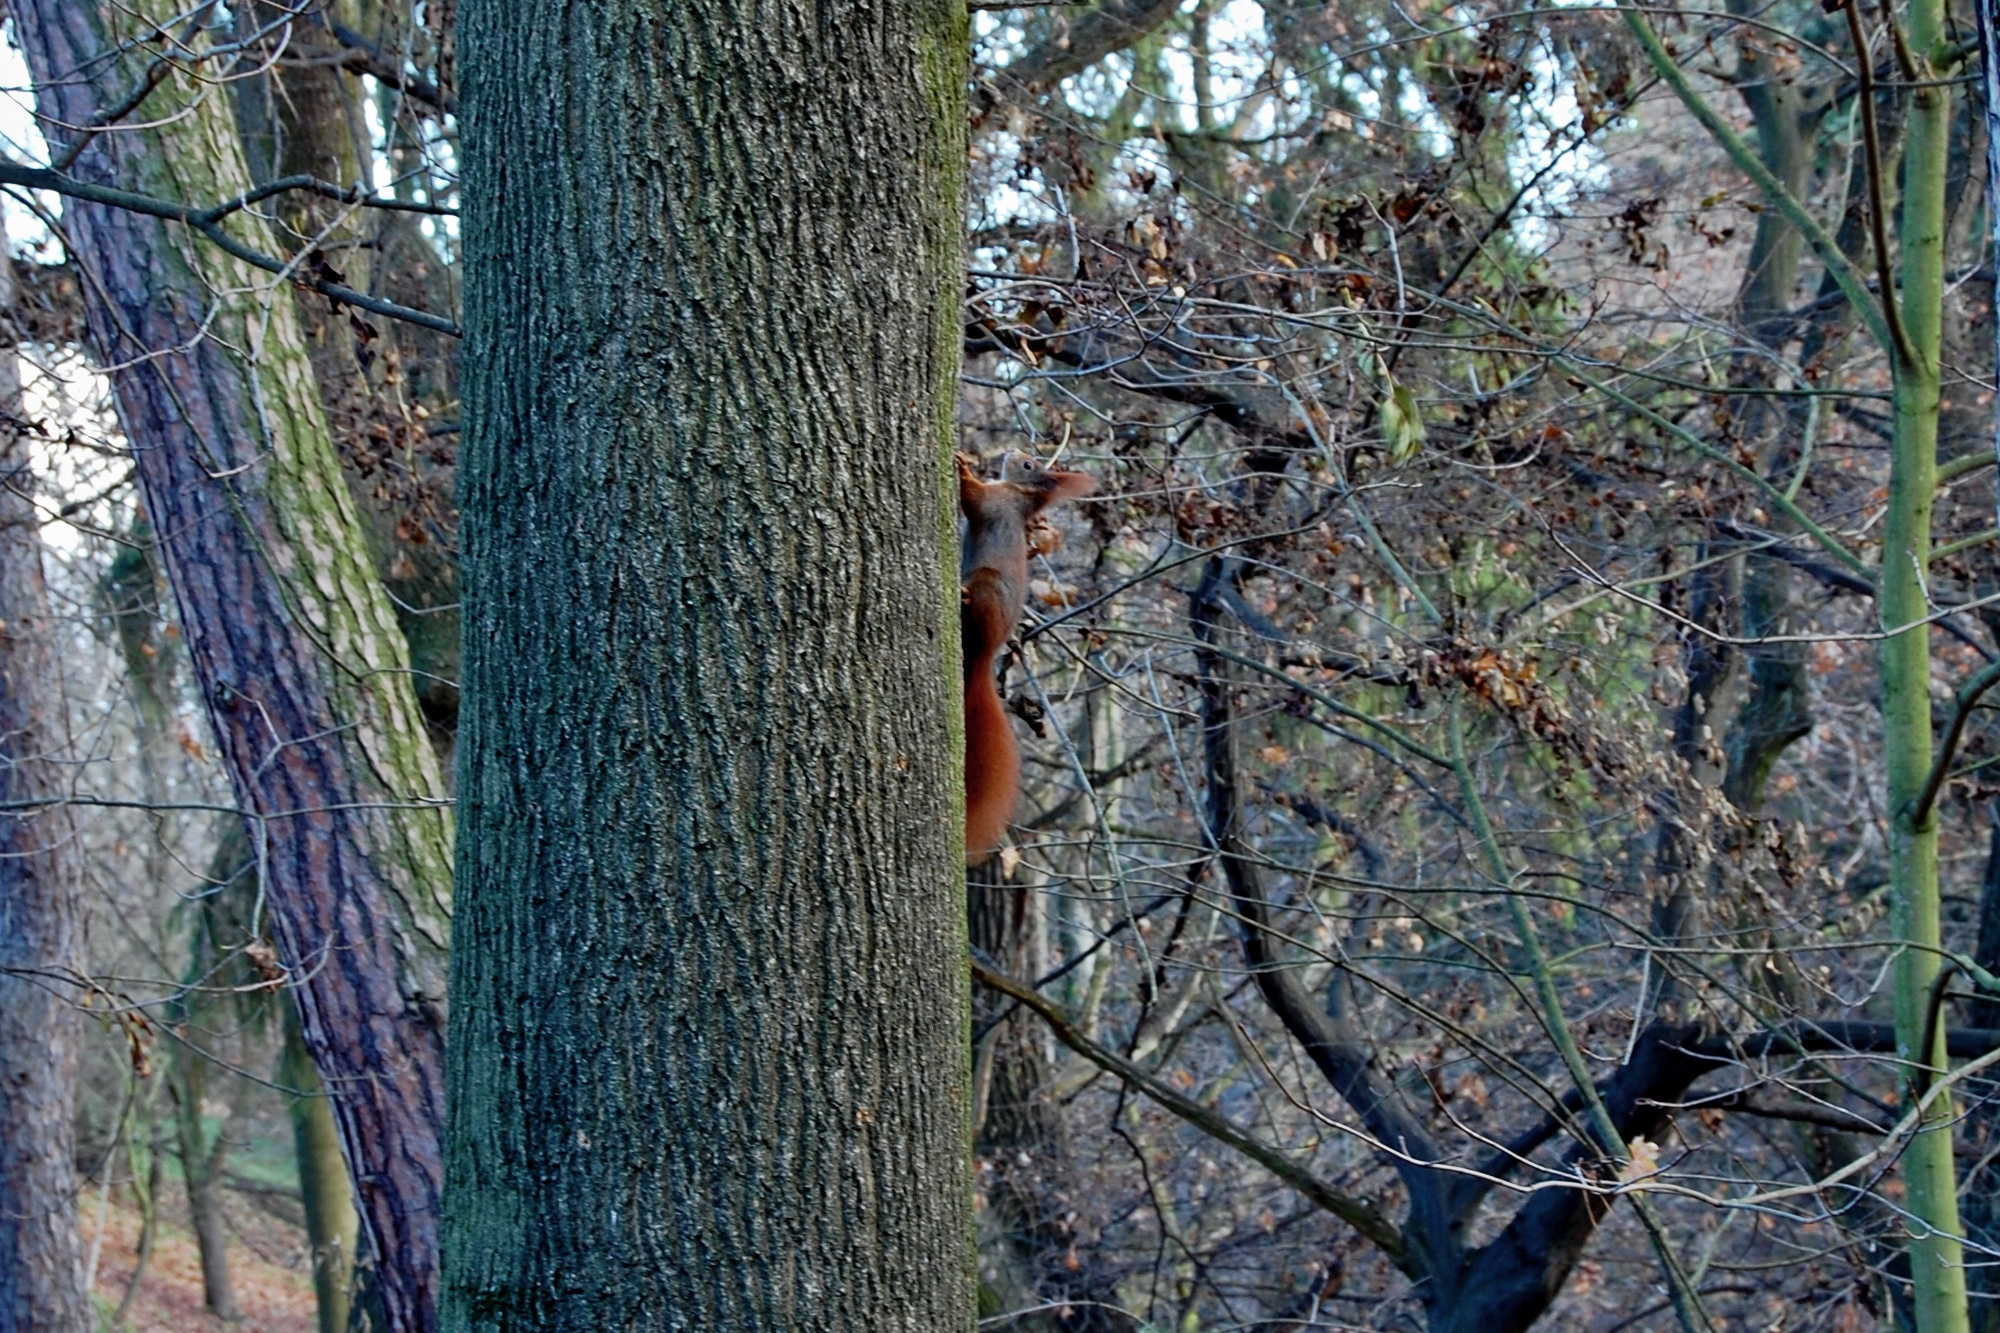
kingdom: Animalia
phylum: Chordata
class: Mammalia
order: Rodentia
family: Sciuridae
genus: Sciurus
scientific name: Sciurus vulgaris
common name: Eurasian red squirrel
